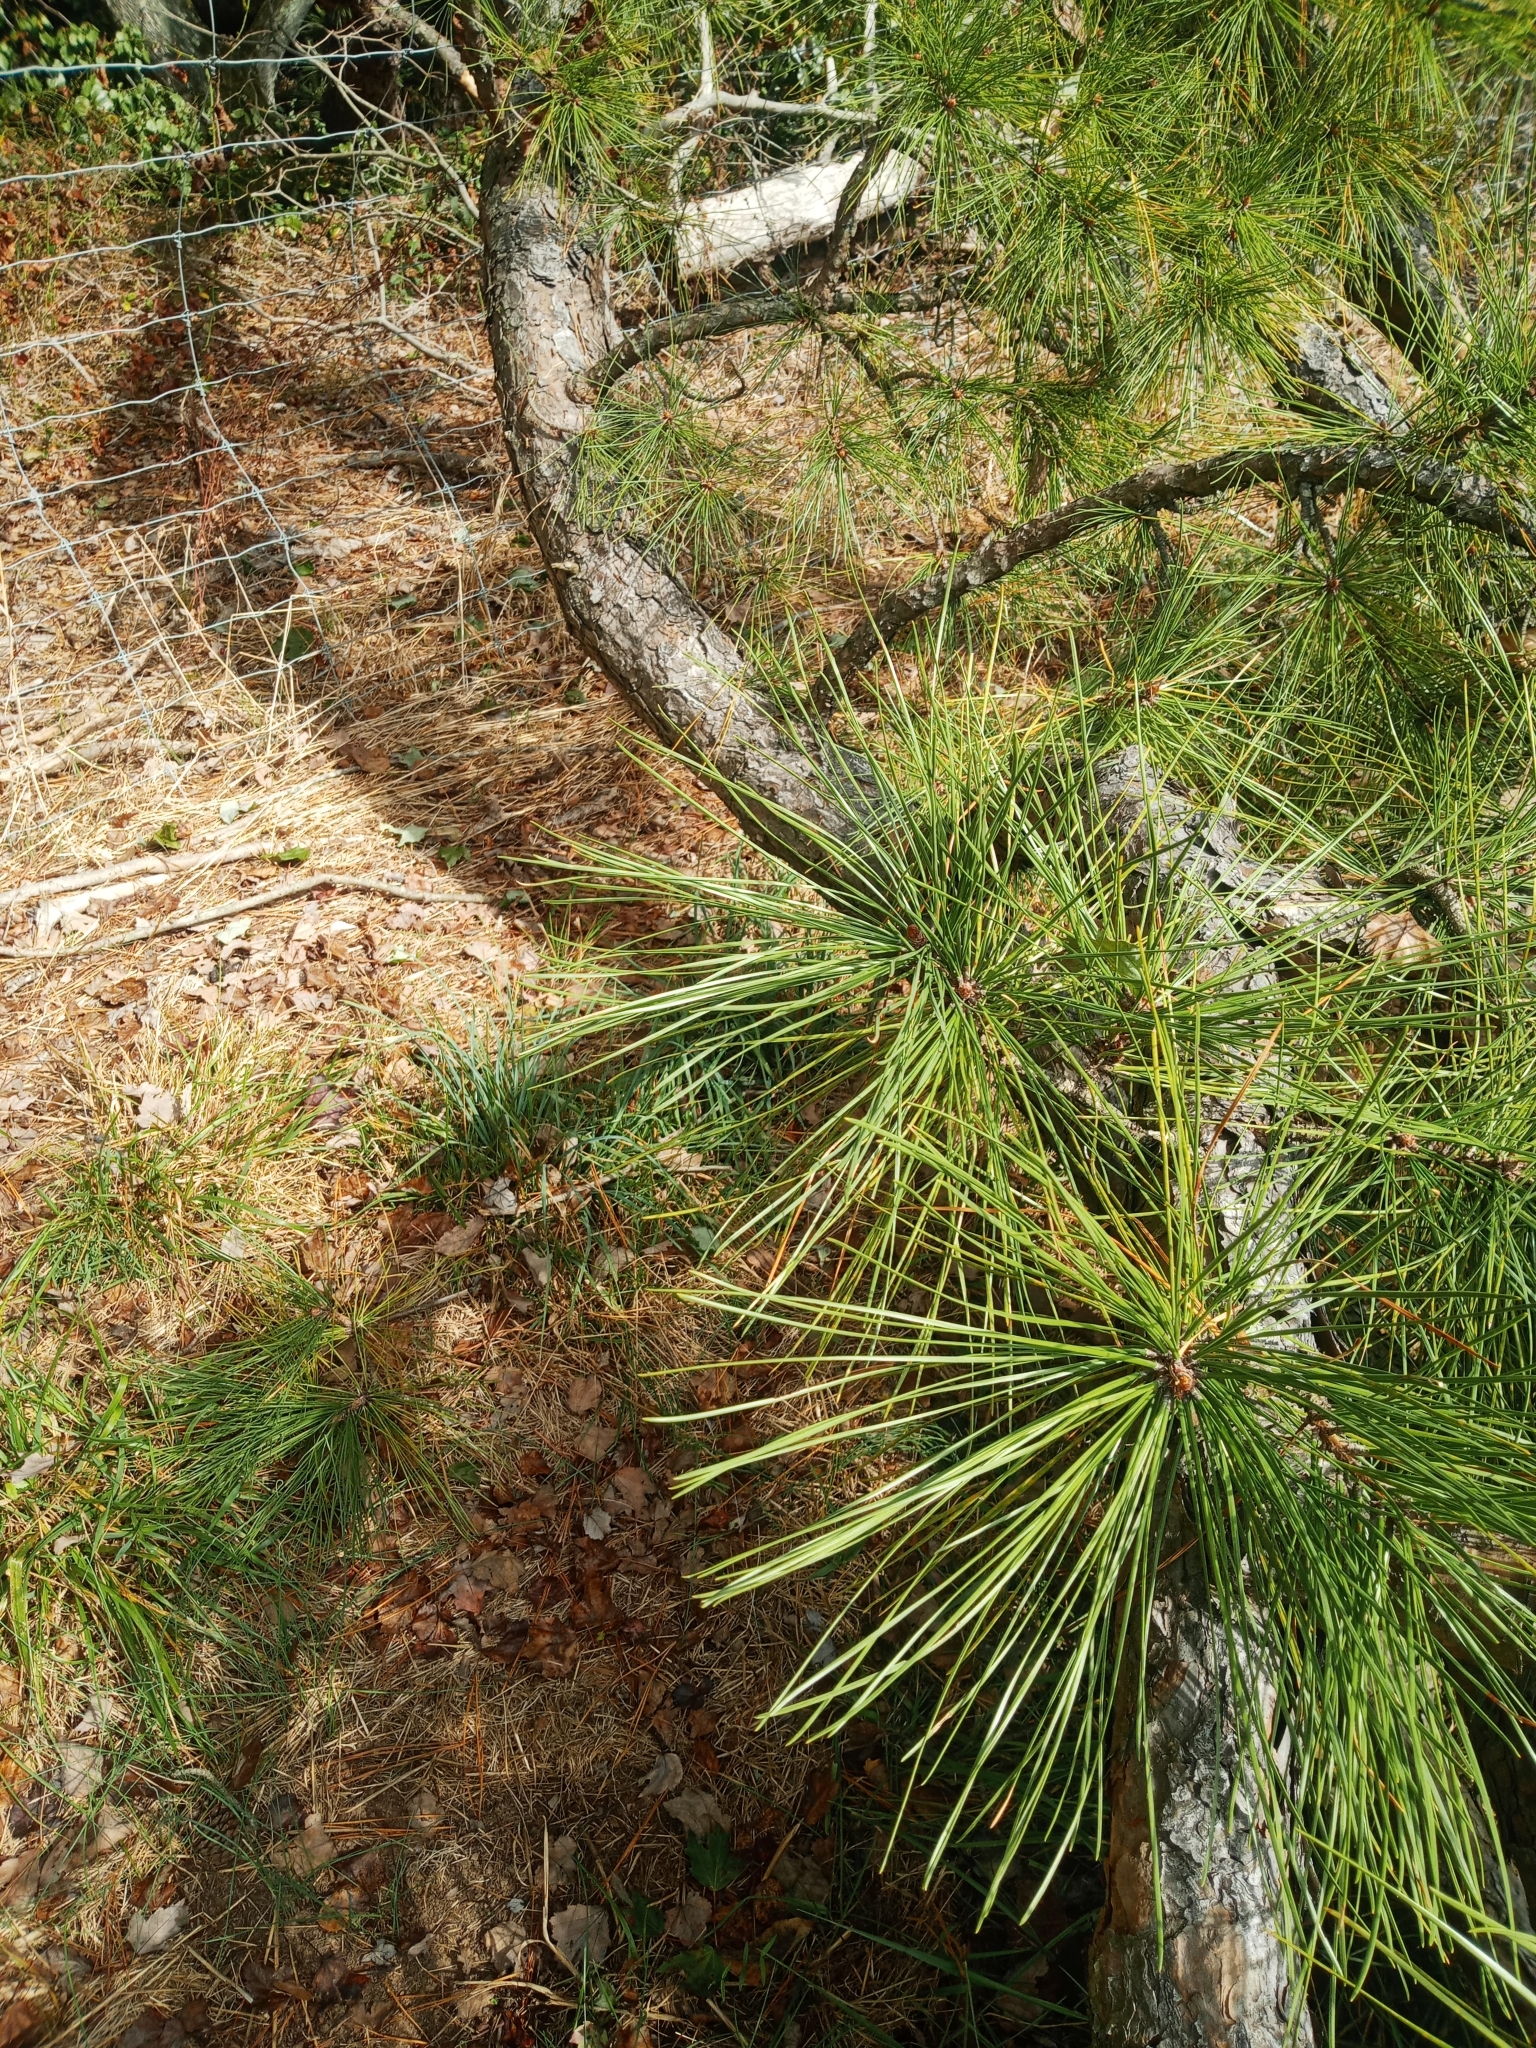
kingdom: Plantae
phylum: Tracheophyta
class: Pinopsida
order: Pinales
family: Pinaceae
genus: Pinus
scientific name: Pinus rigida
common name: Pitch pine
